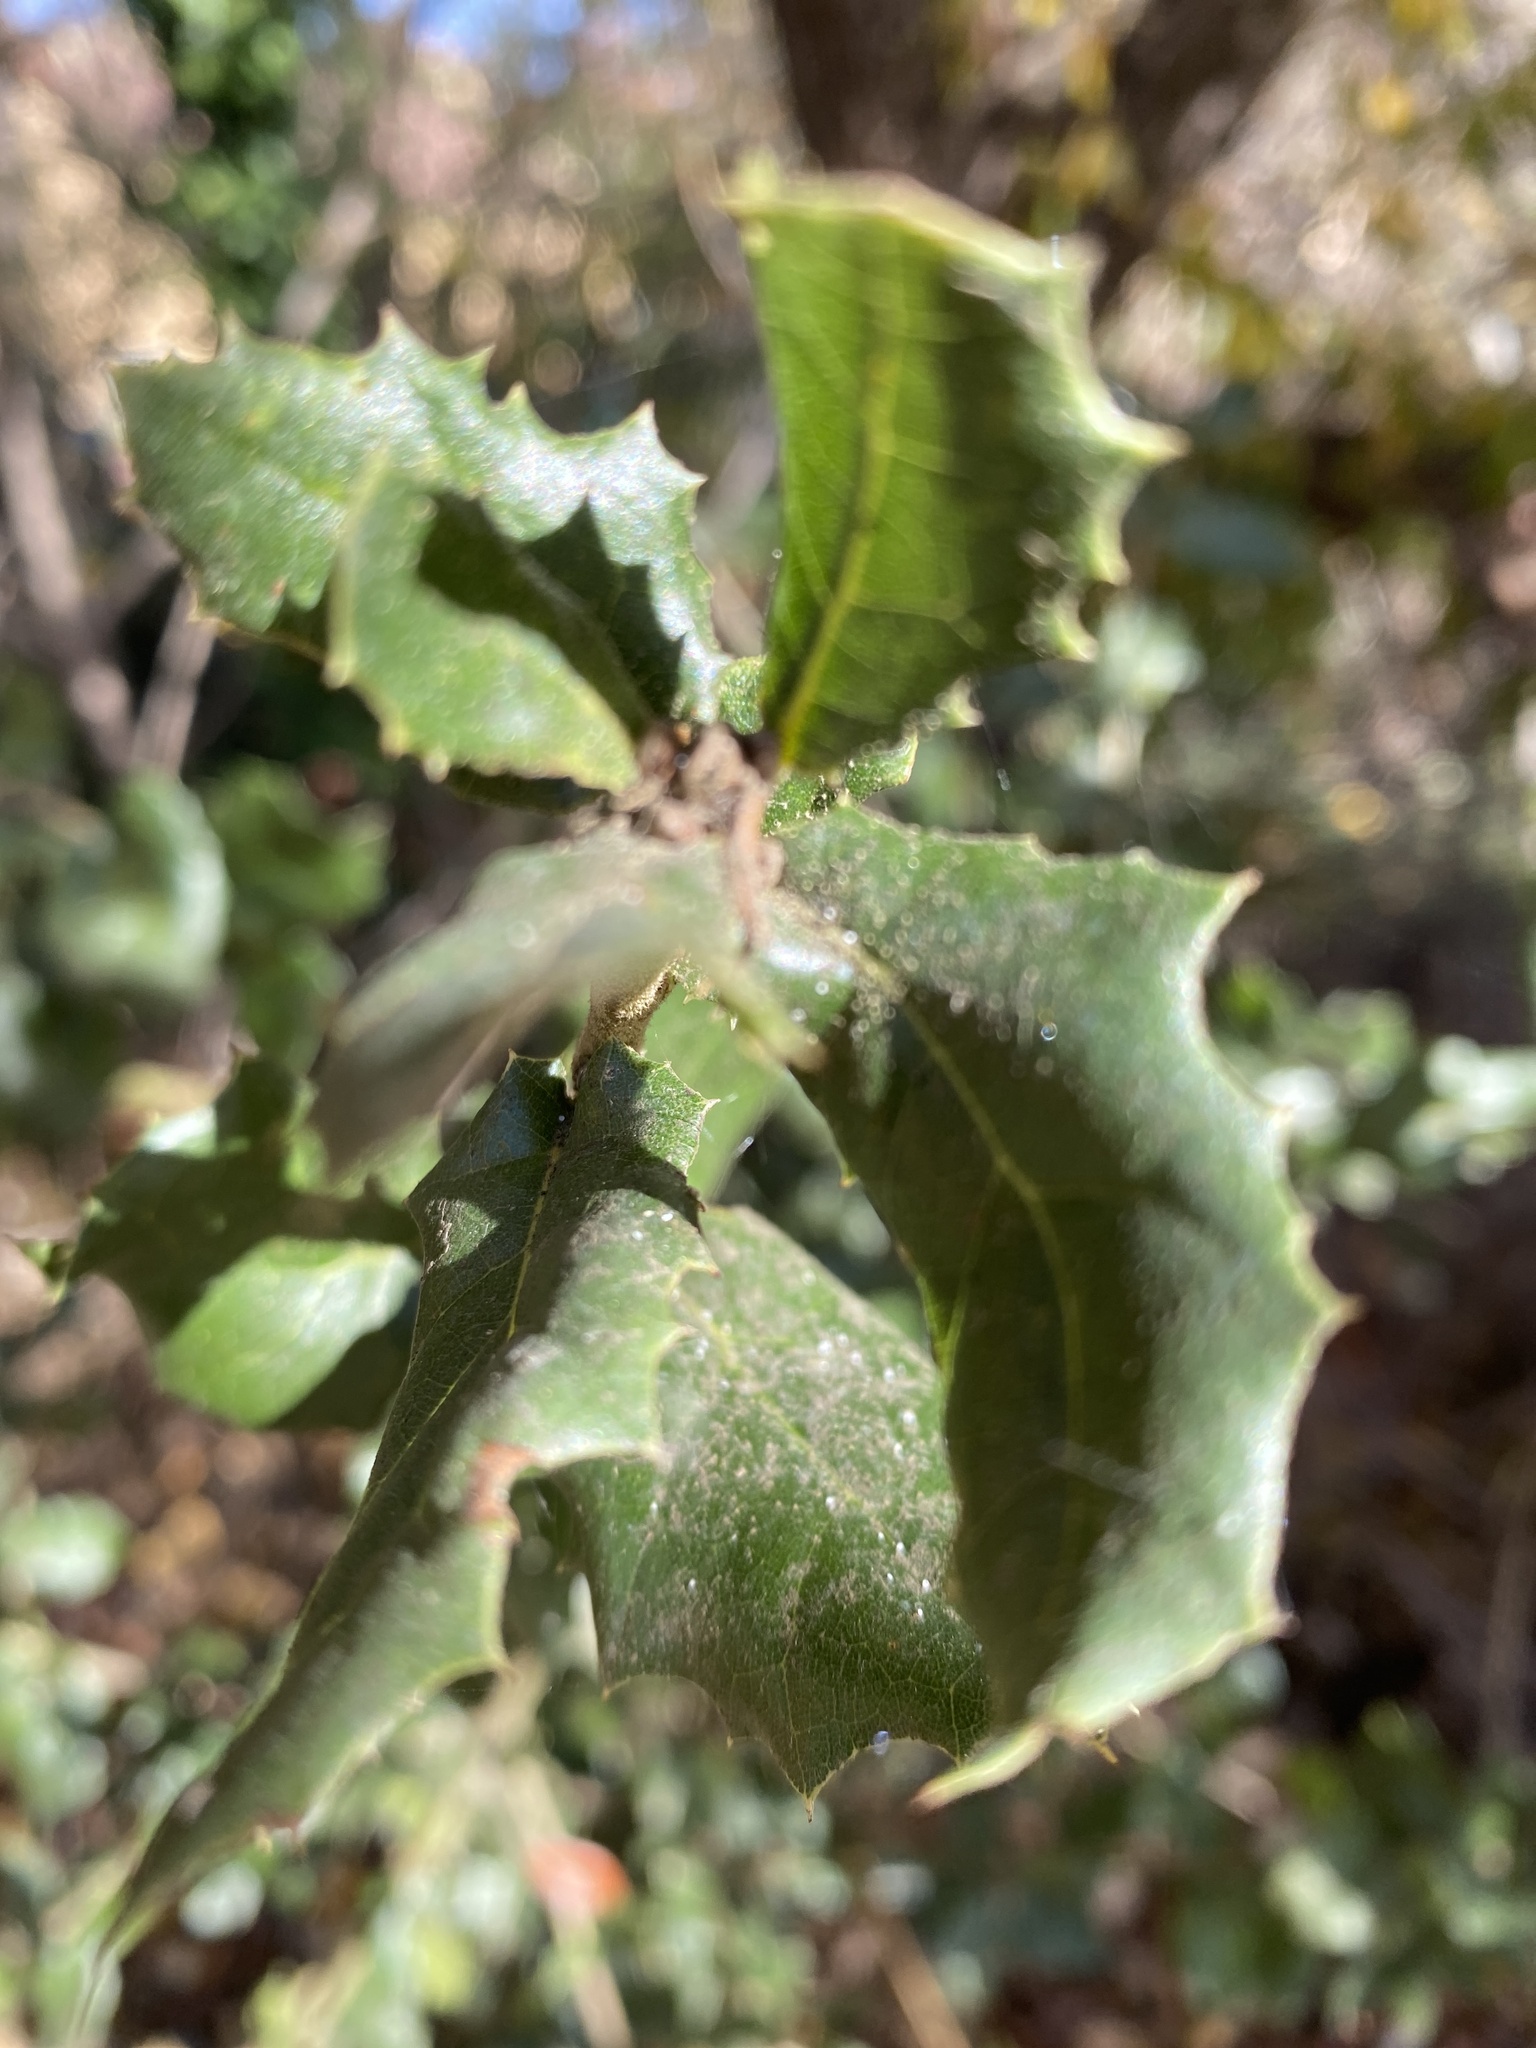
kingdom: Plantae
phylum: Tracheophyta
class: Magnoliopsida
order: Fagales
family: Fagaceae
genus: Quercus
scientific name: Quercus agrifolia
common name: California live oak
